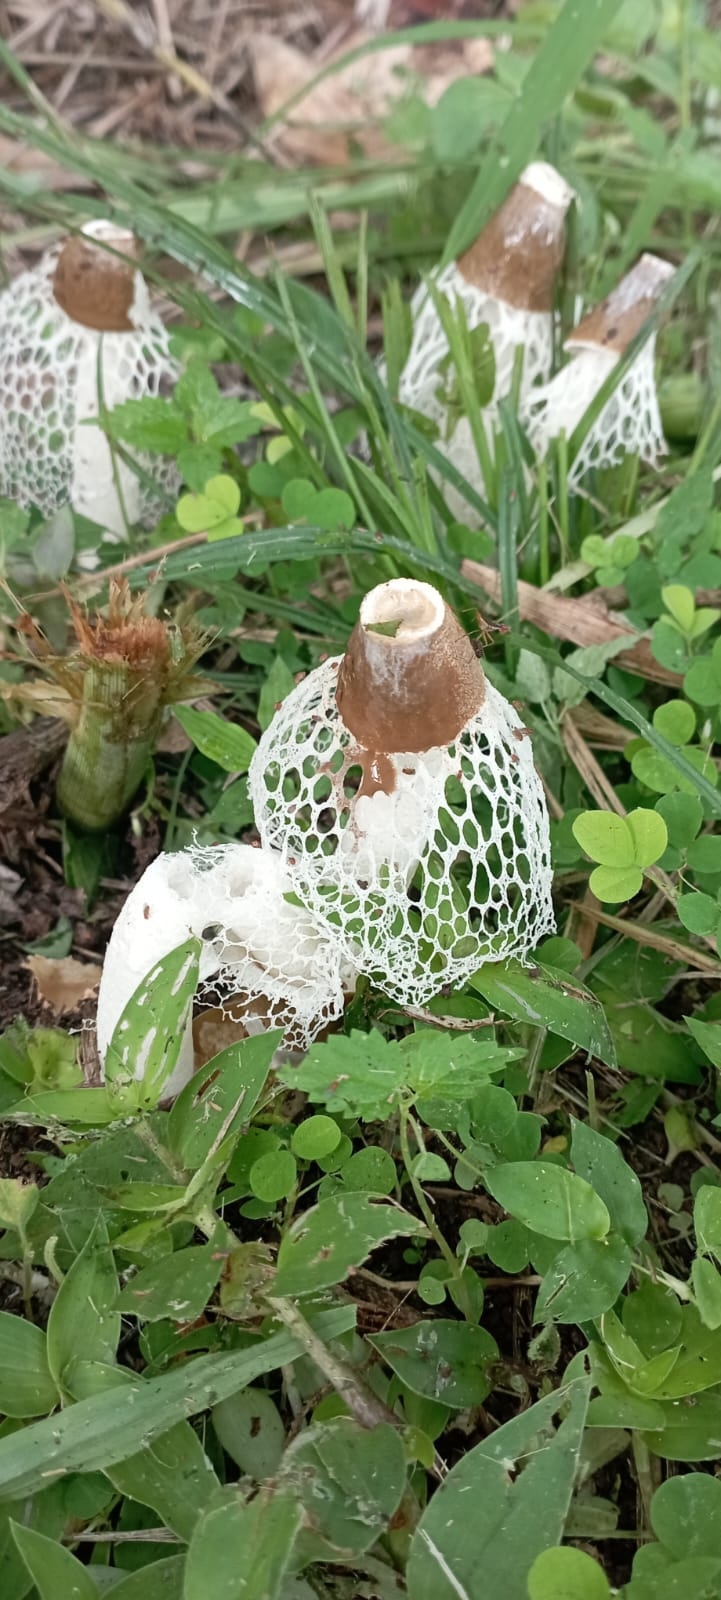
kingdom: Fungi
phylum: Basidiomycota
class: Agaricomycetes
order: Phallales
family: Phallaceae
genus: Phallus
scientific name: Phallus merulinus
